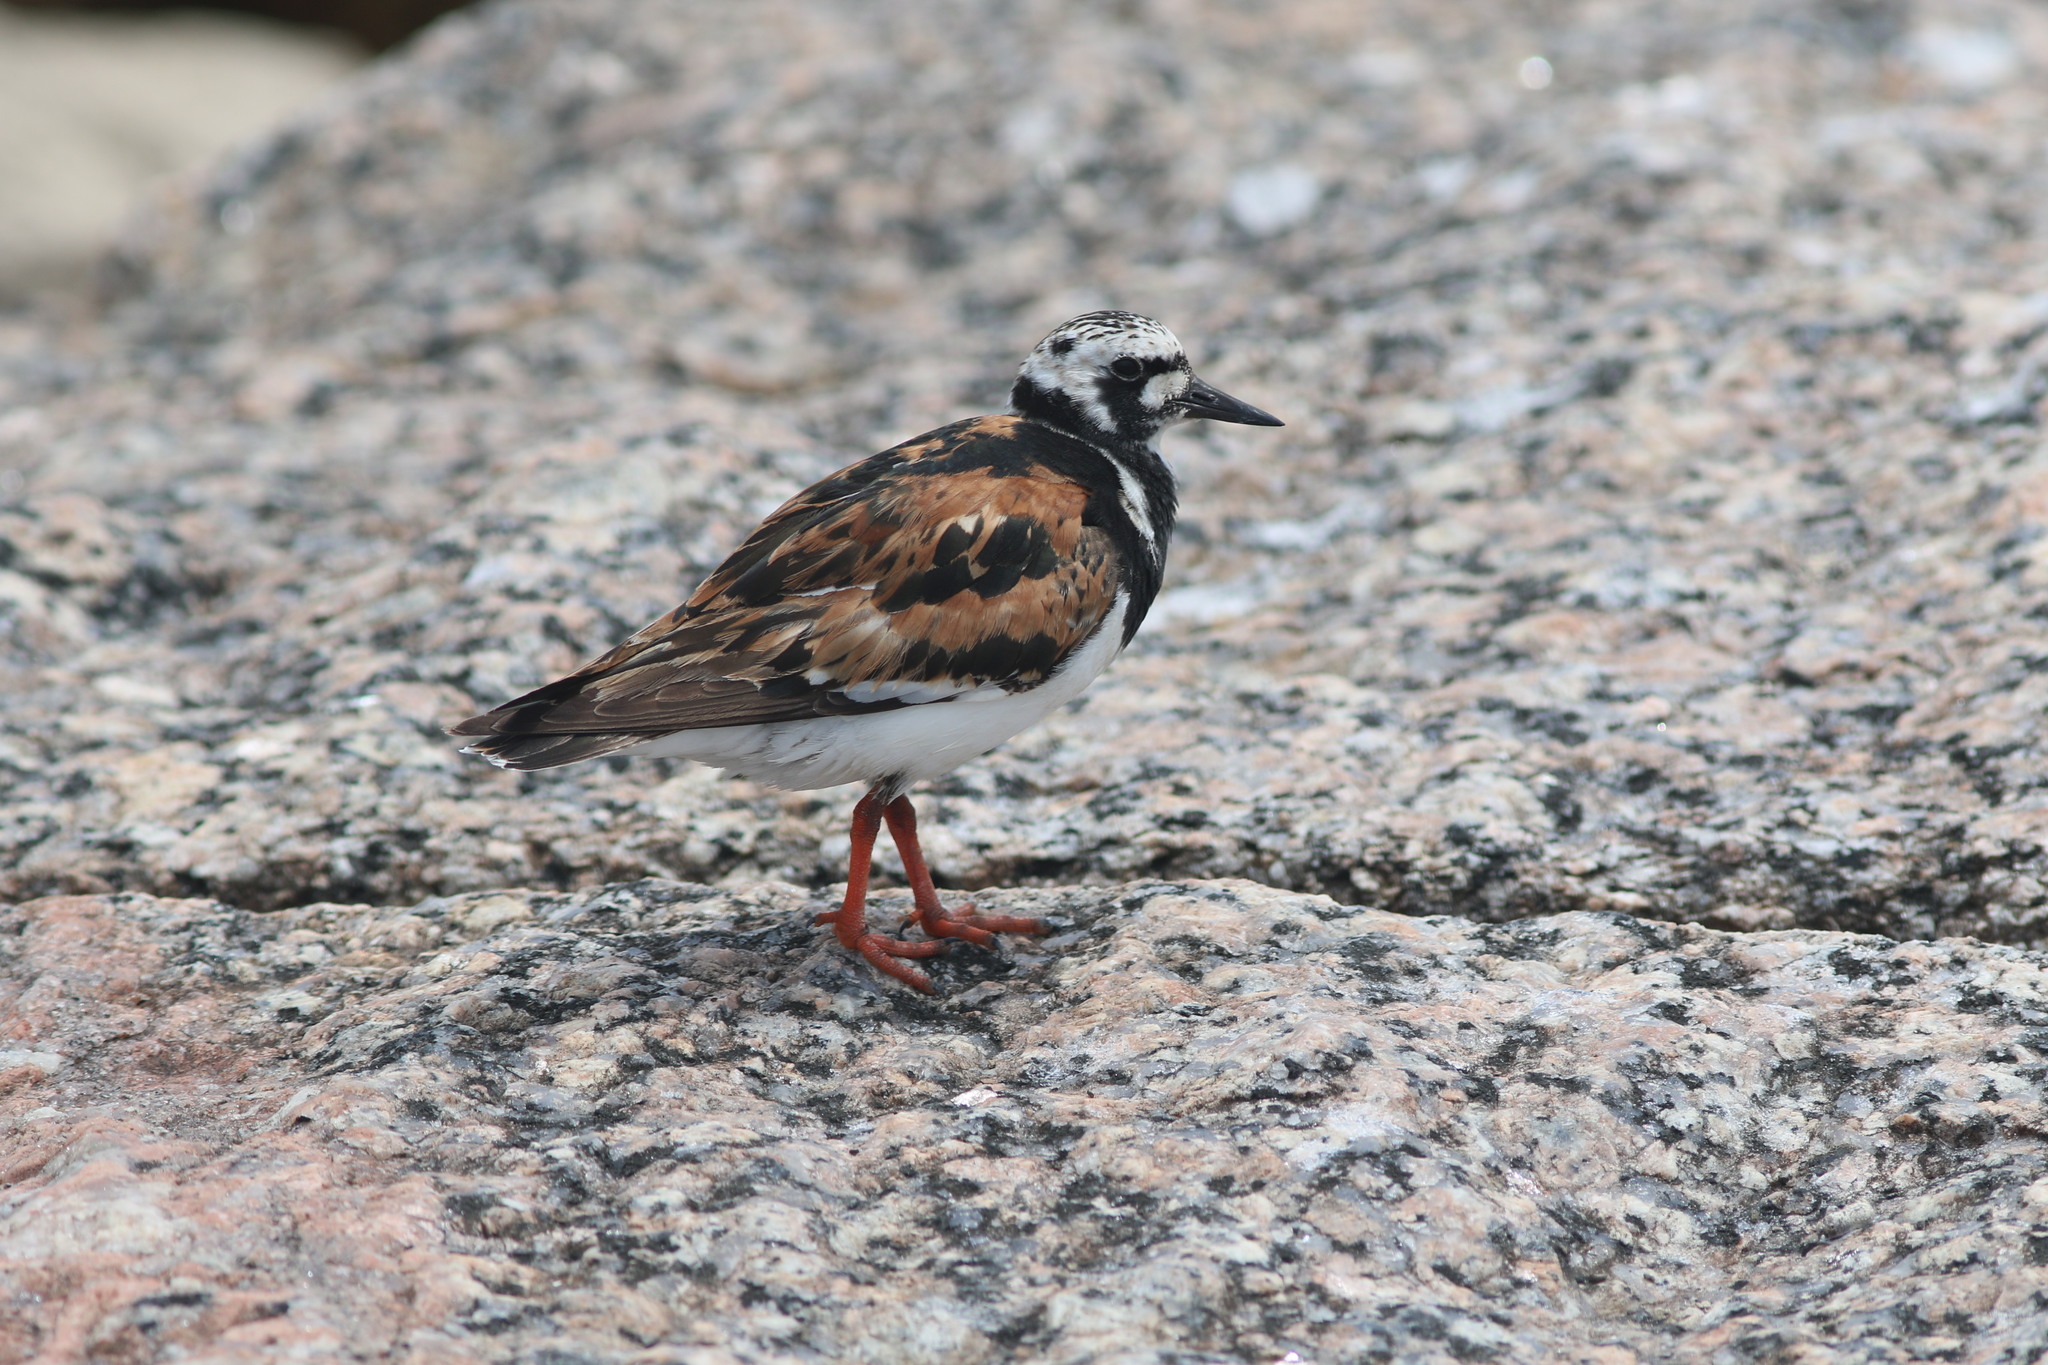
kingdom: Animalia
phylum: Chordata
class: Aves
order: Charadriiformes
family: Scolopacidae
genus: Arenaria
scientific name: Arenaria interpres
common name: Ruddy turnstone
